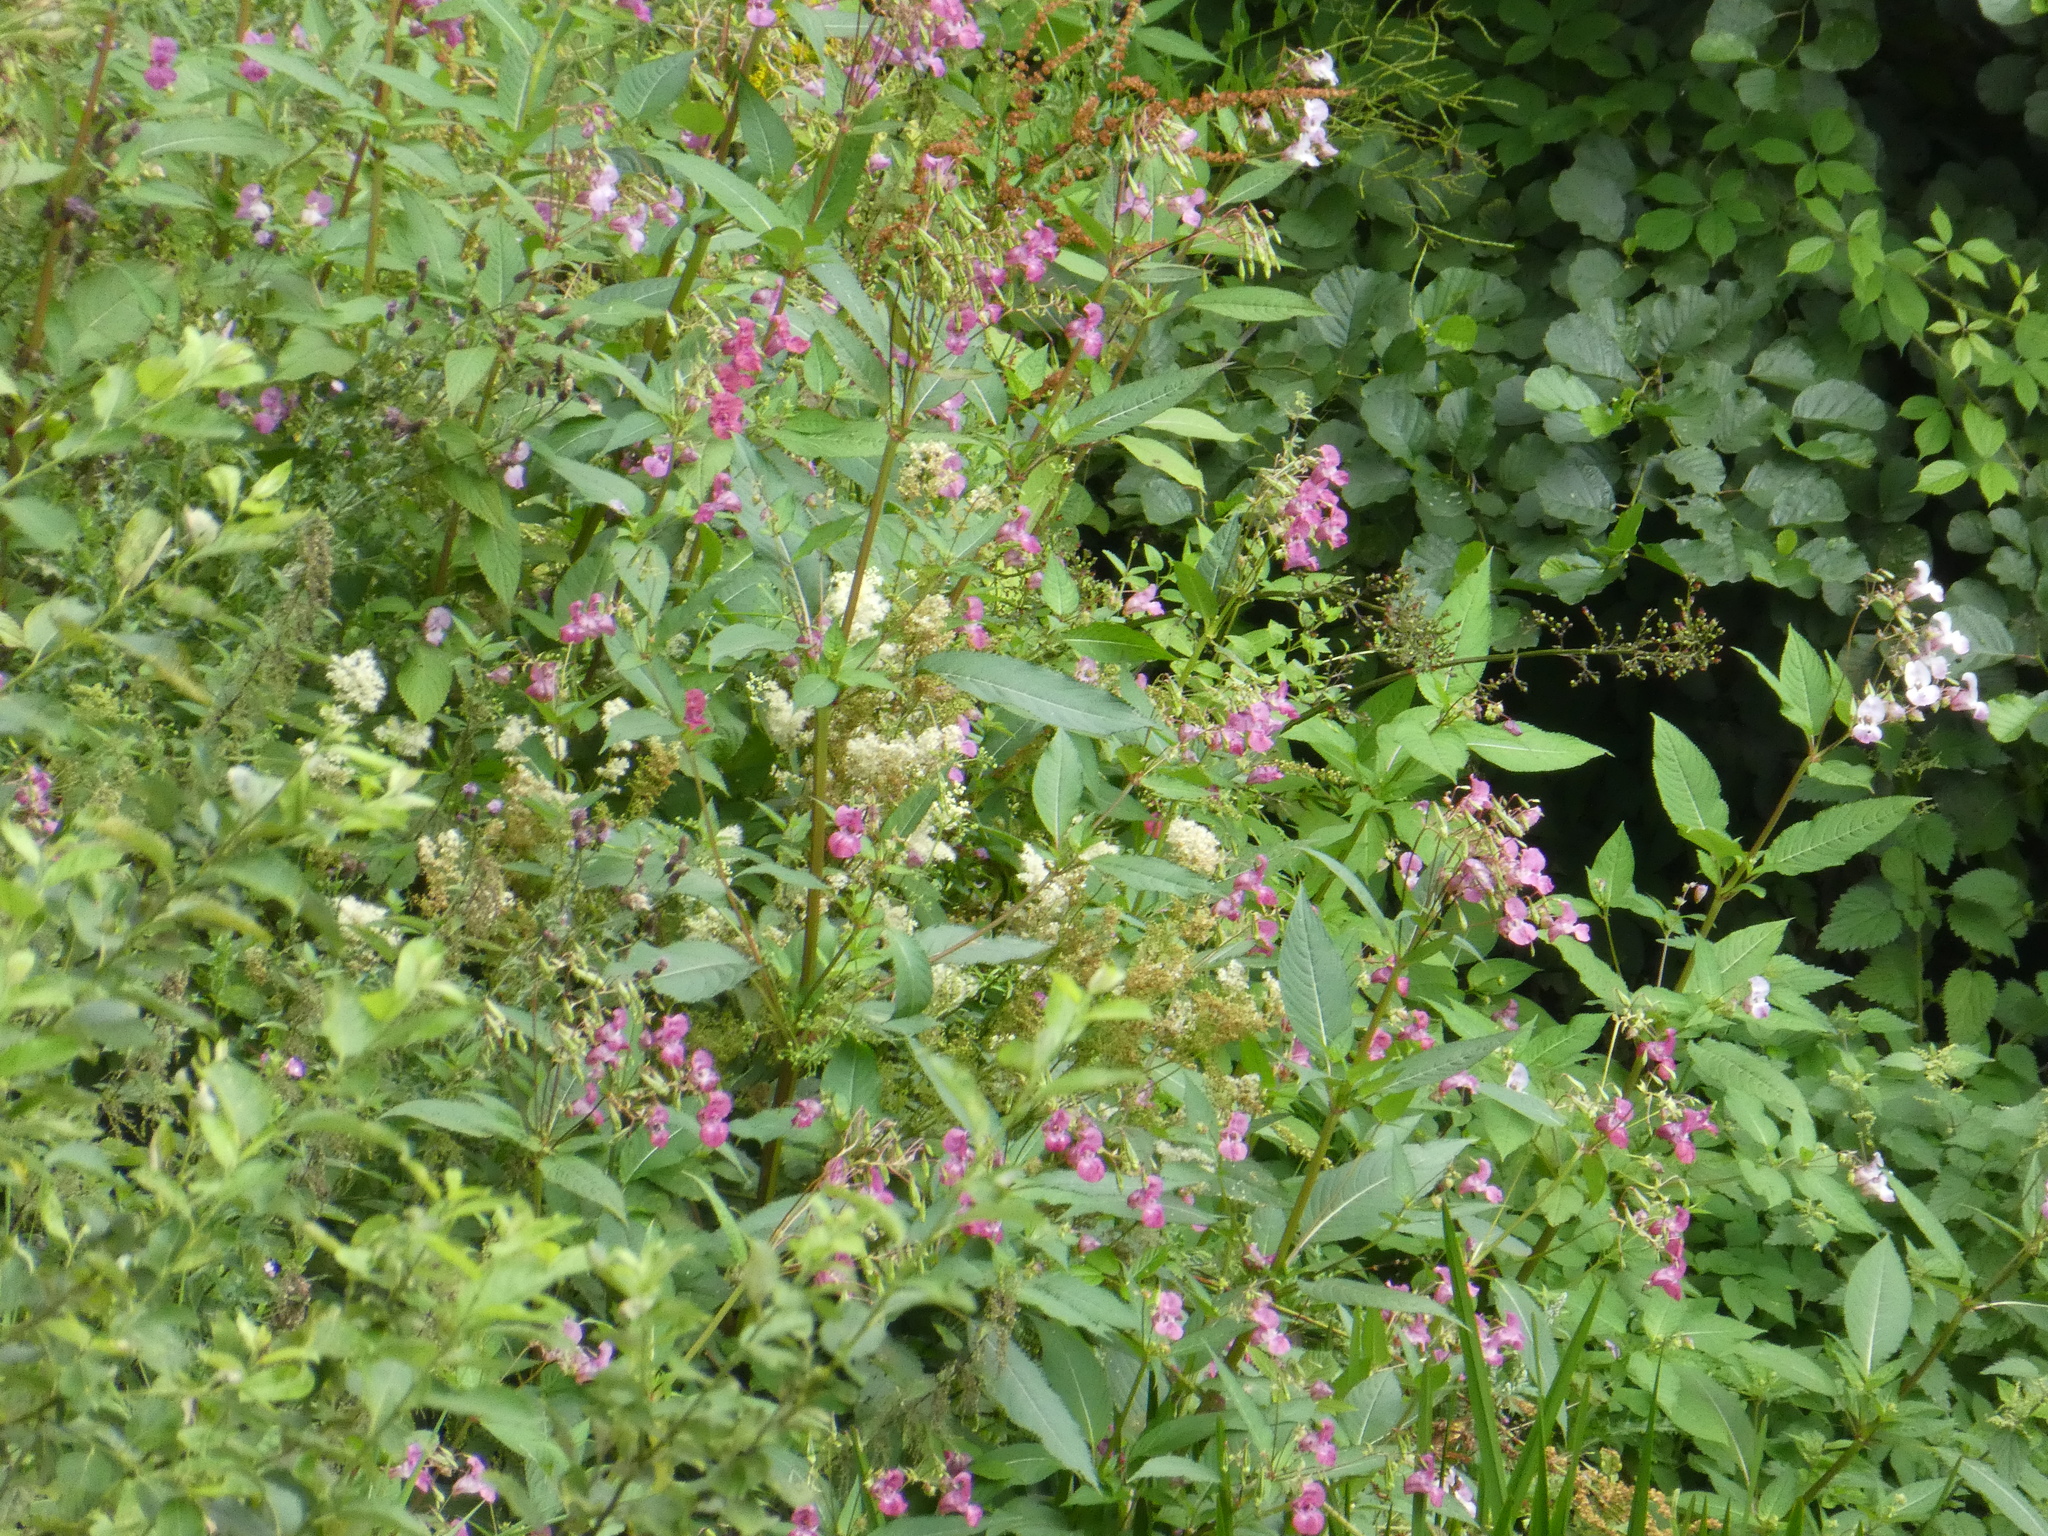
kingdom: Plantae
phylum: Tracheophyta
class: Magnoliopsida
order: Ericales
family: Balsaminaceae
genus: Impatiens
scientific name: Impatiens glandulifera
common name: Himalayan balsam
